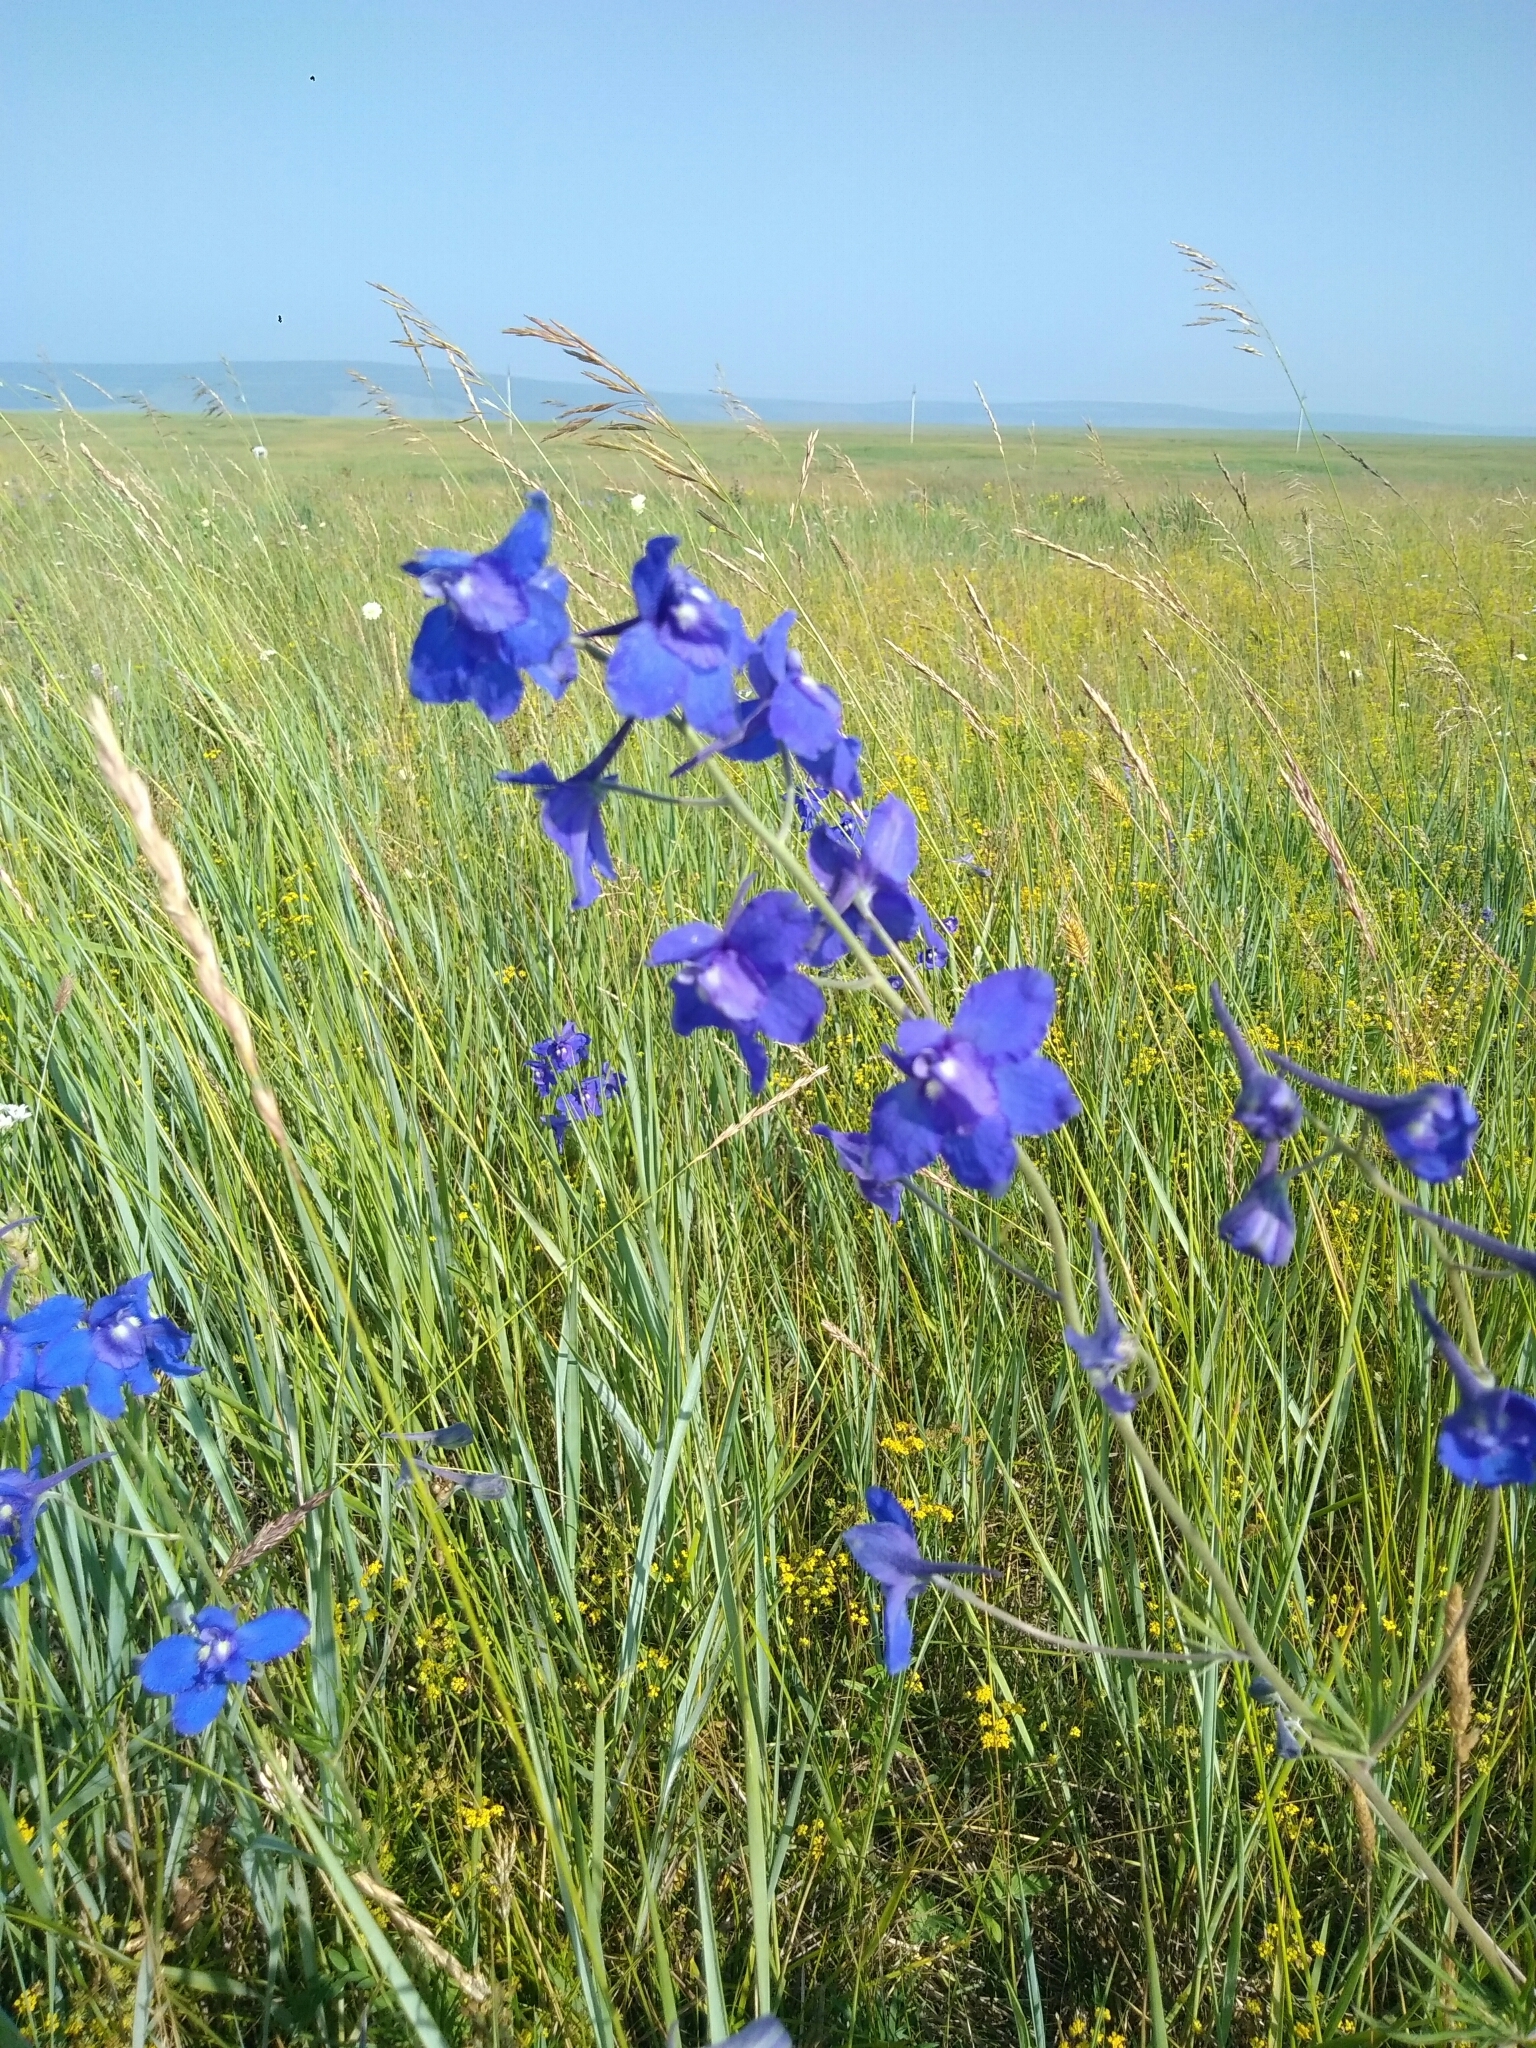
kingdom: Plantae
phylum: Tracheophyta
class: Magnoliopsida
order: Ranunculales
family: Ranunculaceae
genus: Delphinium
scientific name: Delphinium grandiflorum
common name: Siberian larkspur
